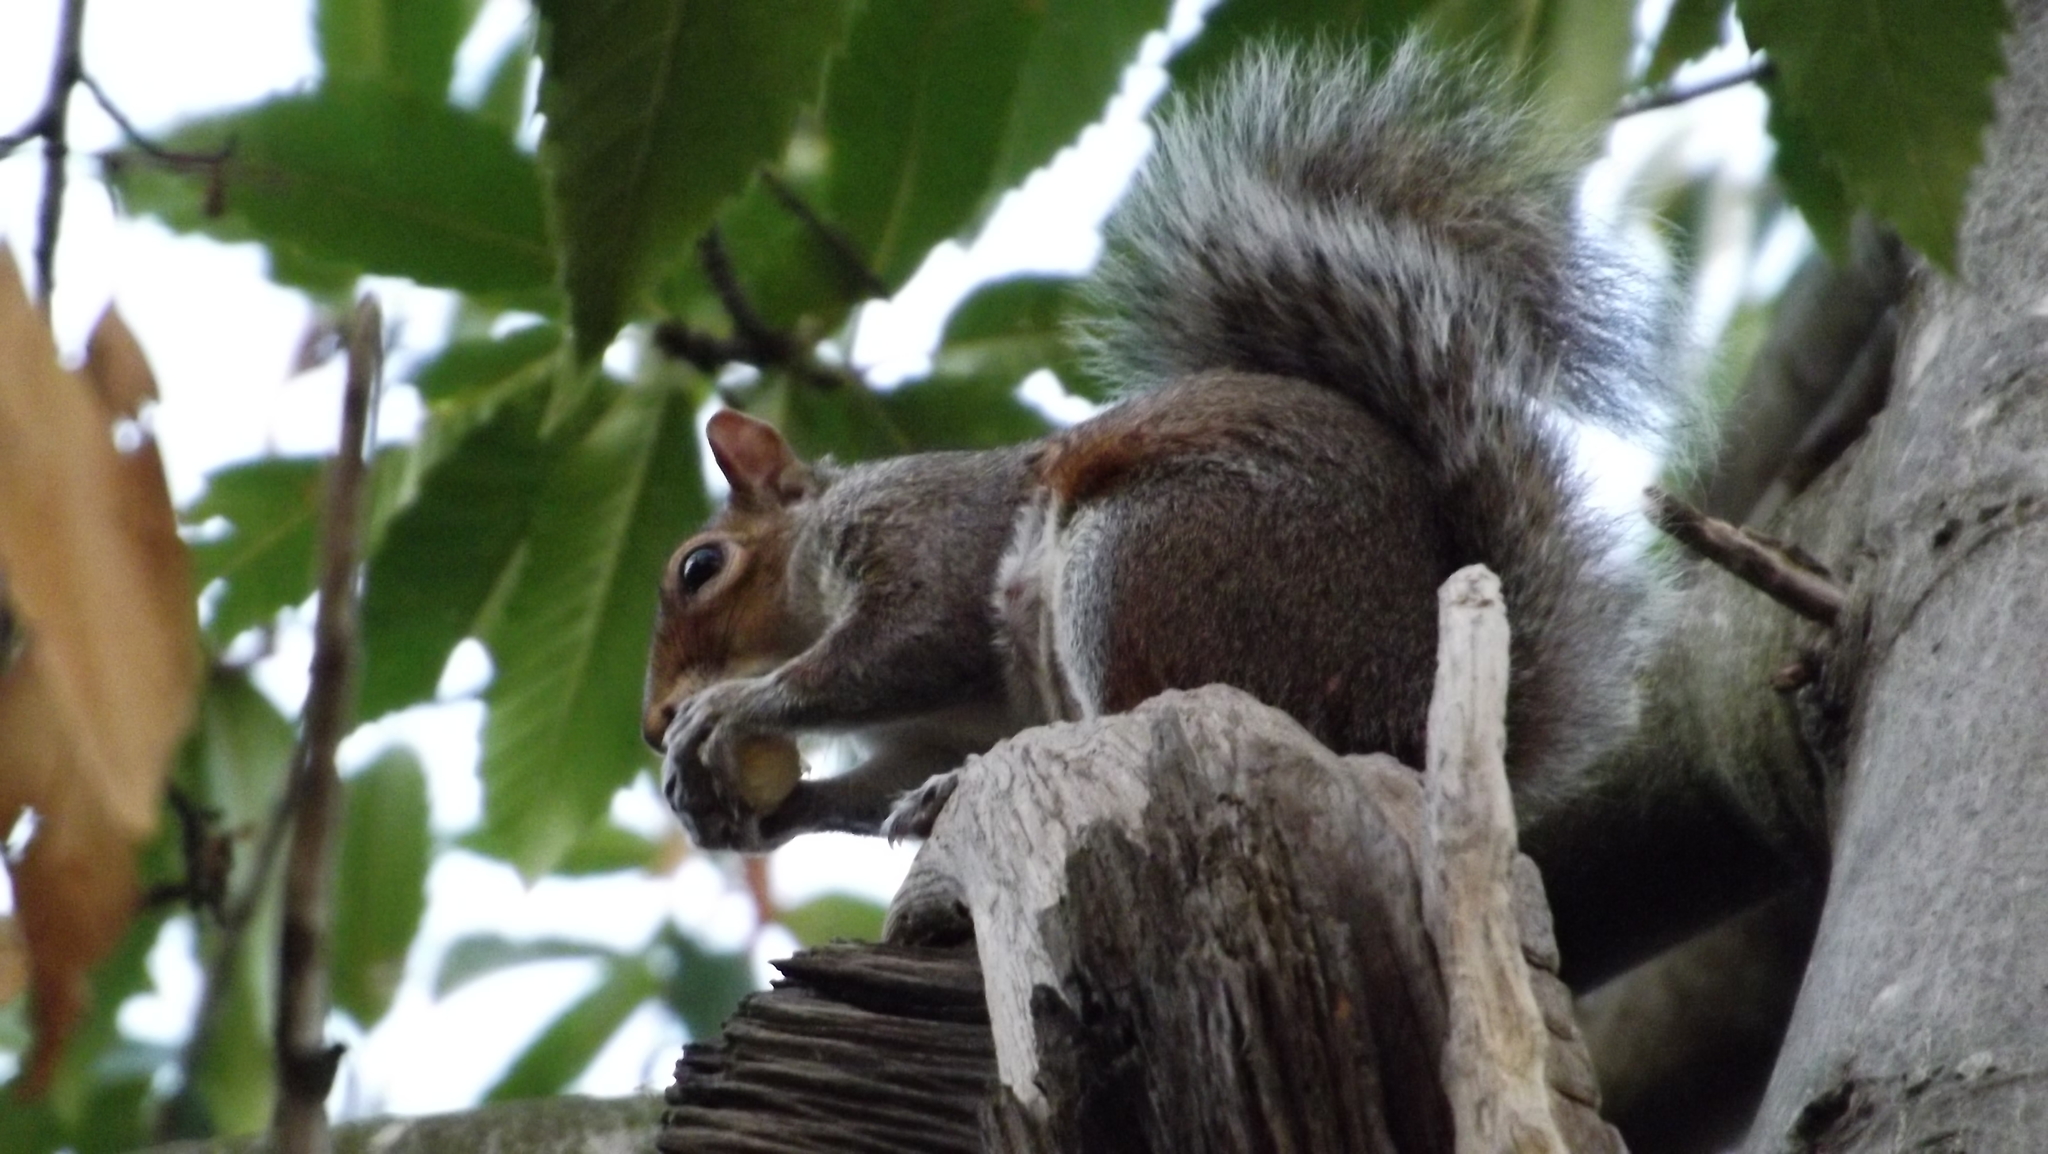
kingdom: Animalia
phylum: Chordata
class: Mammalia
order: Rodentia
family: Sciuridae
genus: Sciurus
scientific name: Sciurus carolinensis
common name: Eastern gray squirrel
